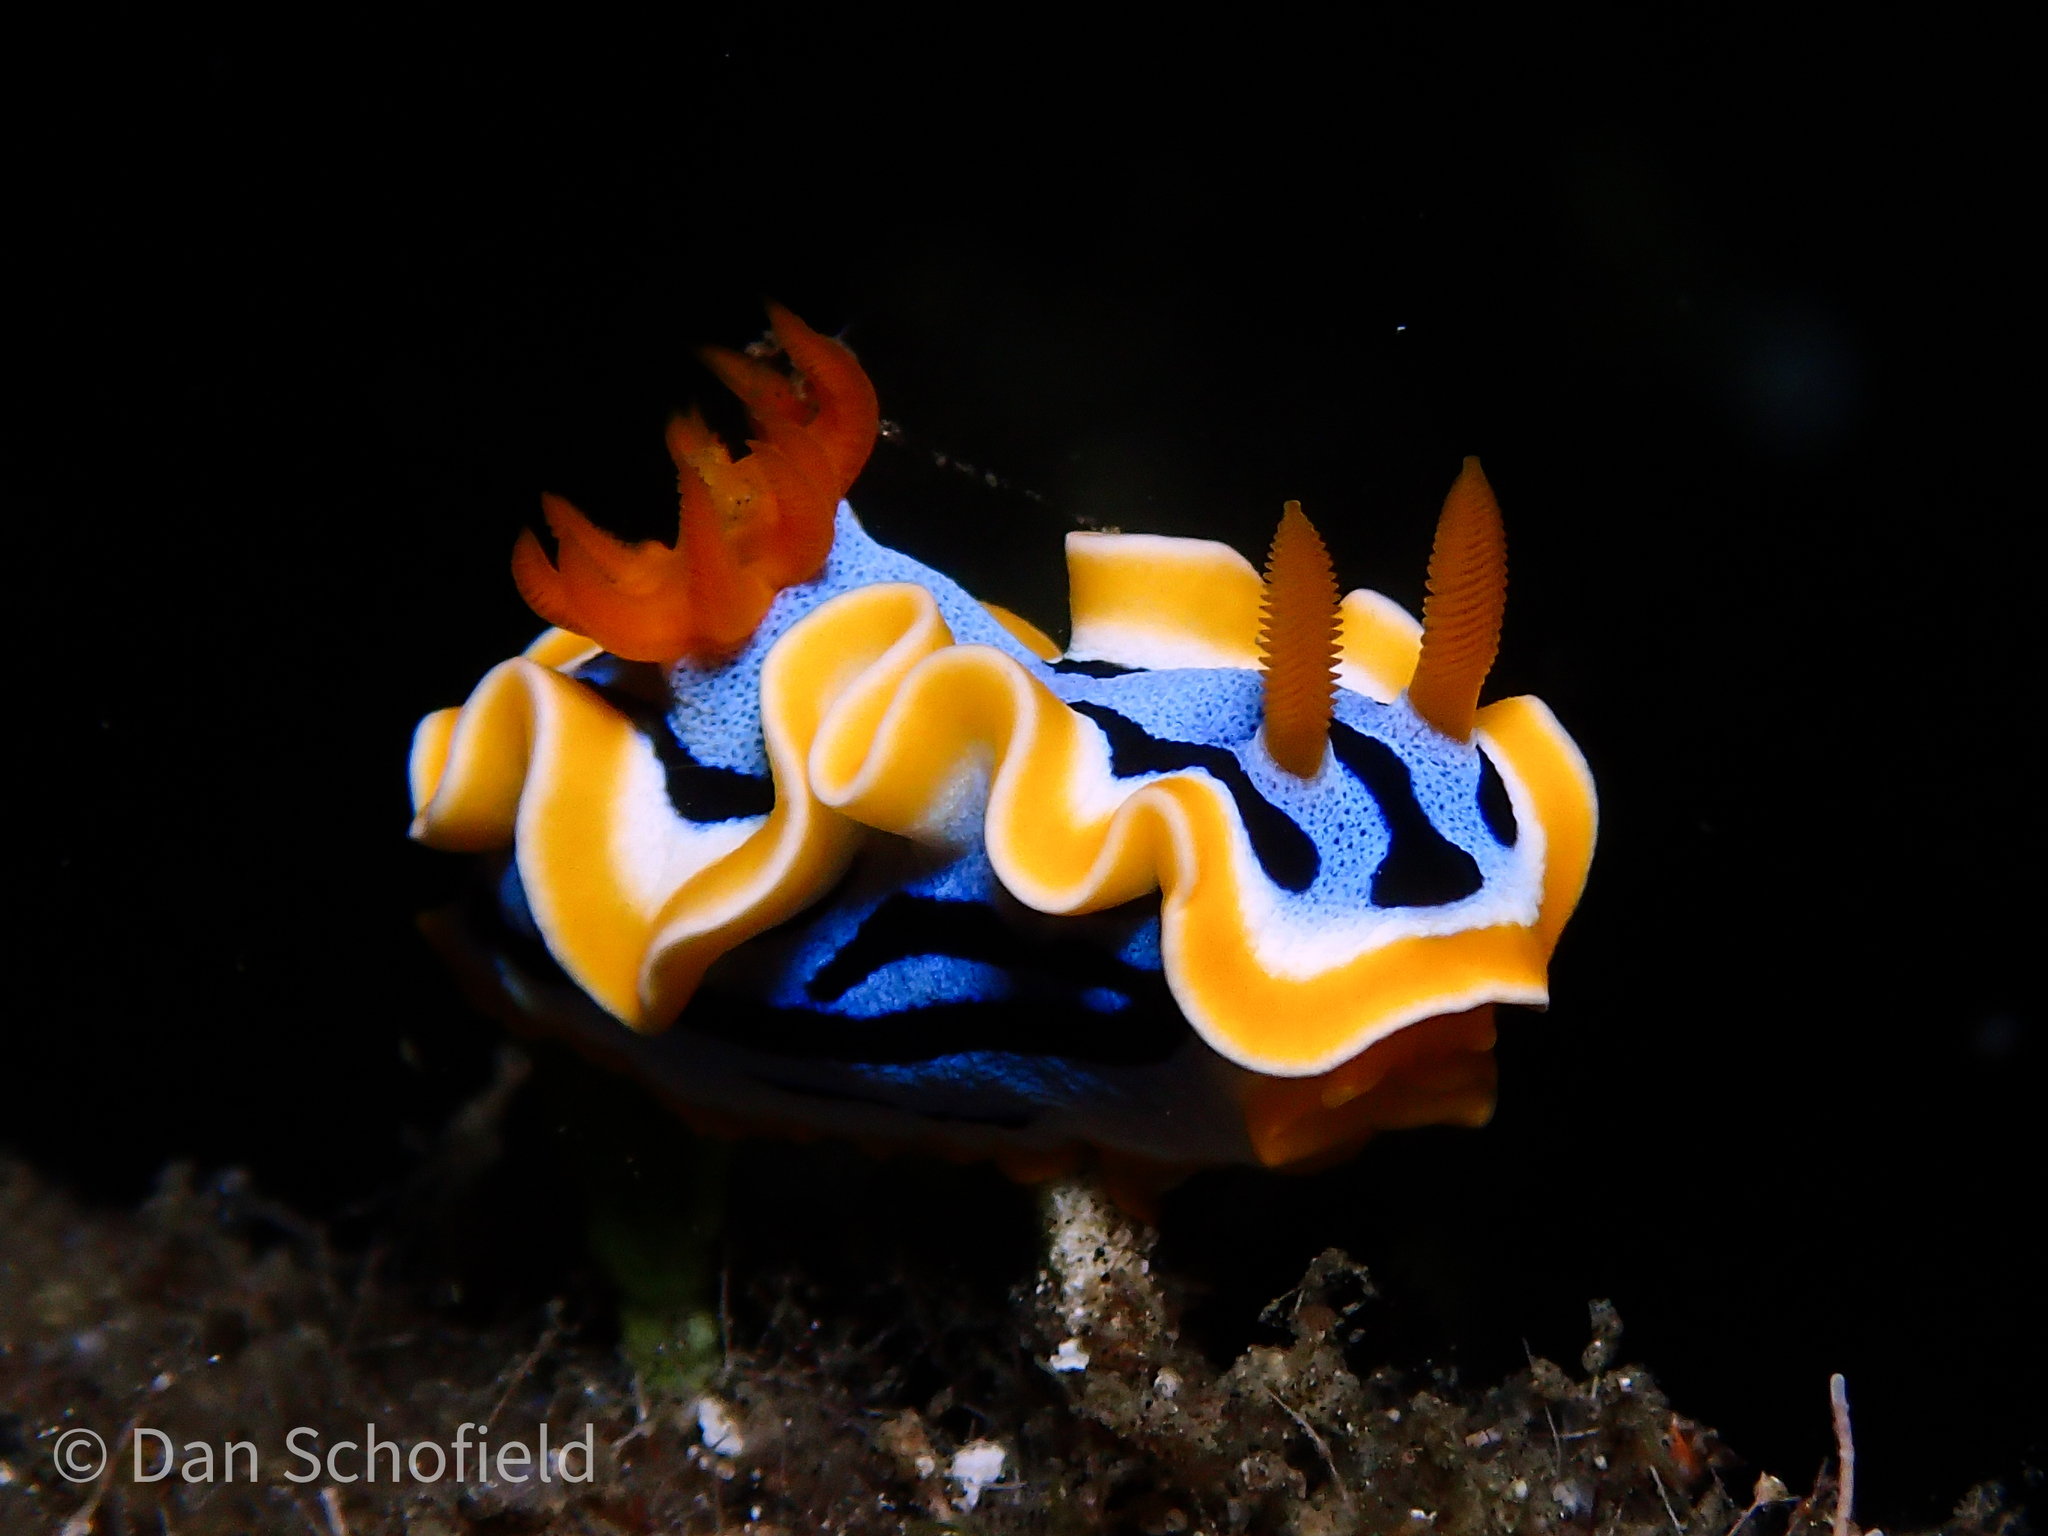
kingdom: Animalia
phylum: Mollusca
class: Gastropoda
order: Nudibranchia
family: Chromodorididae
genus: Chromodoris
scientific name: Chromodoris annae
